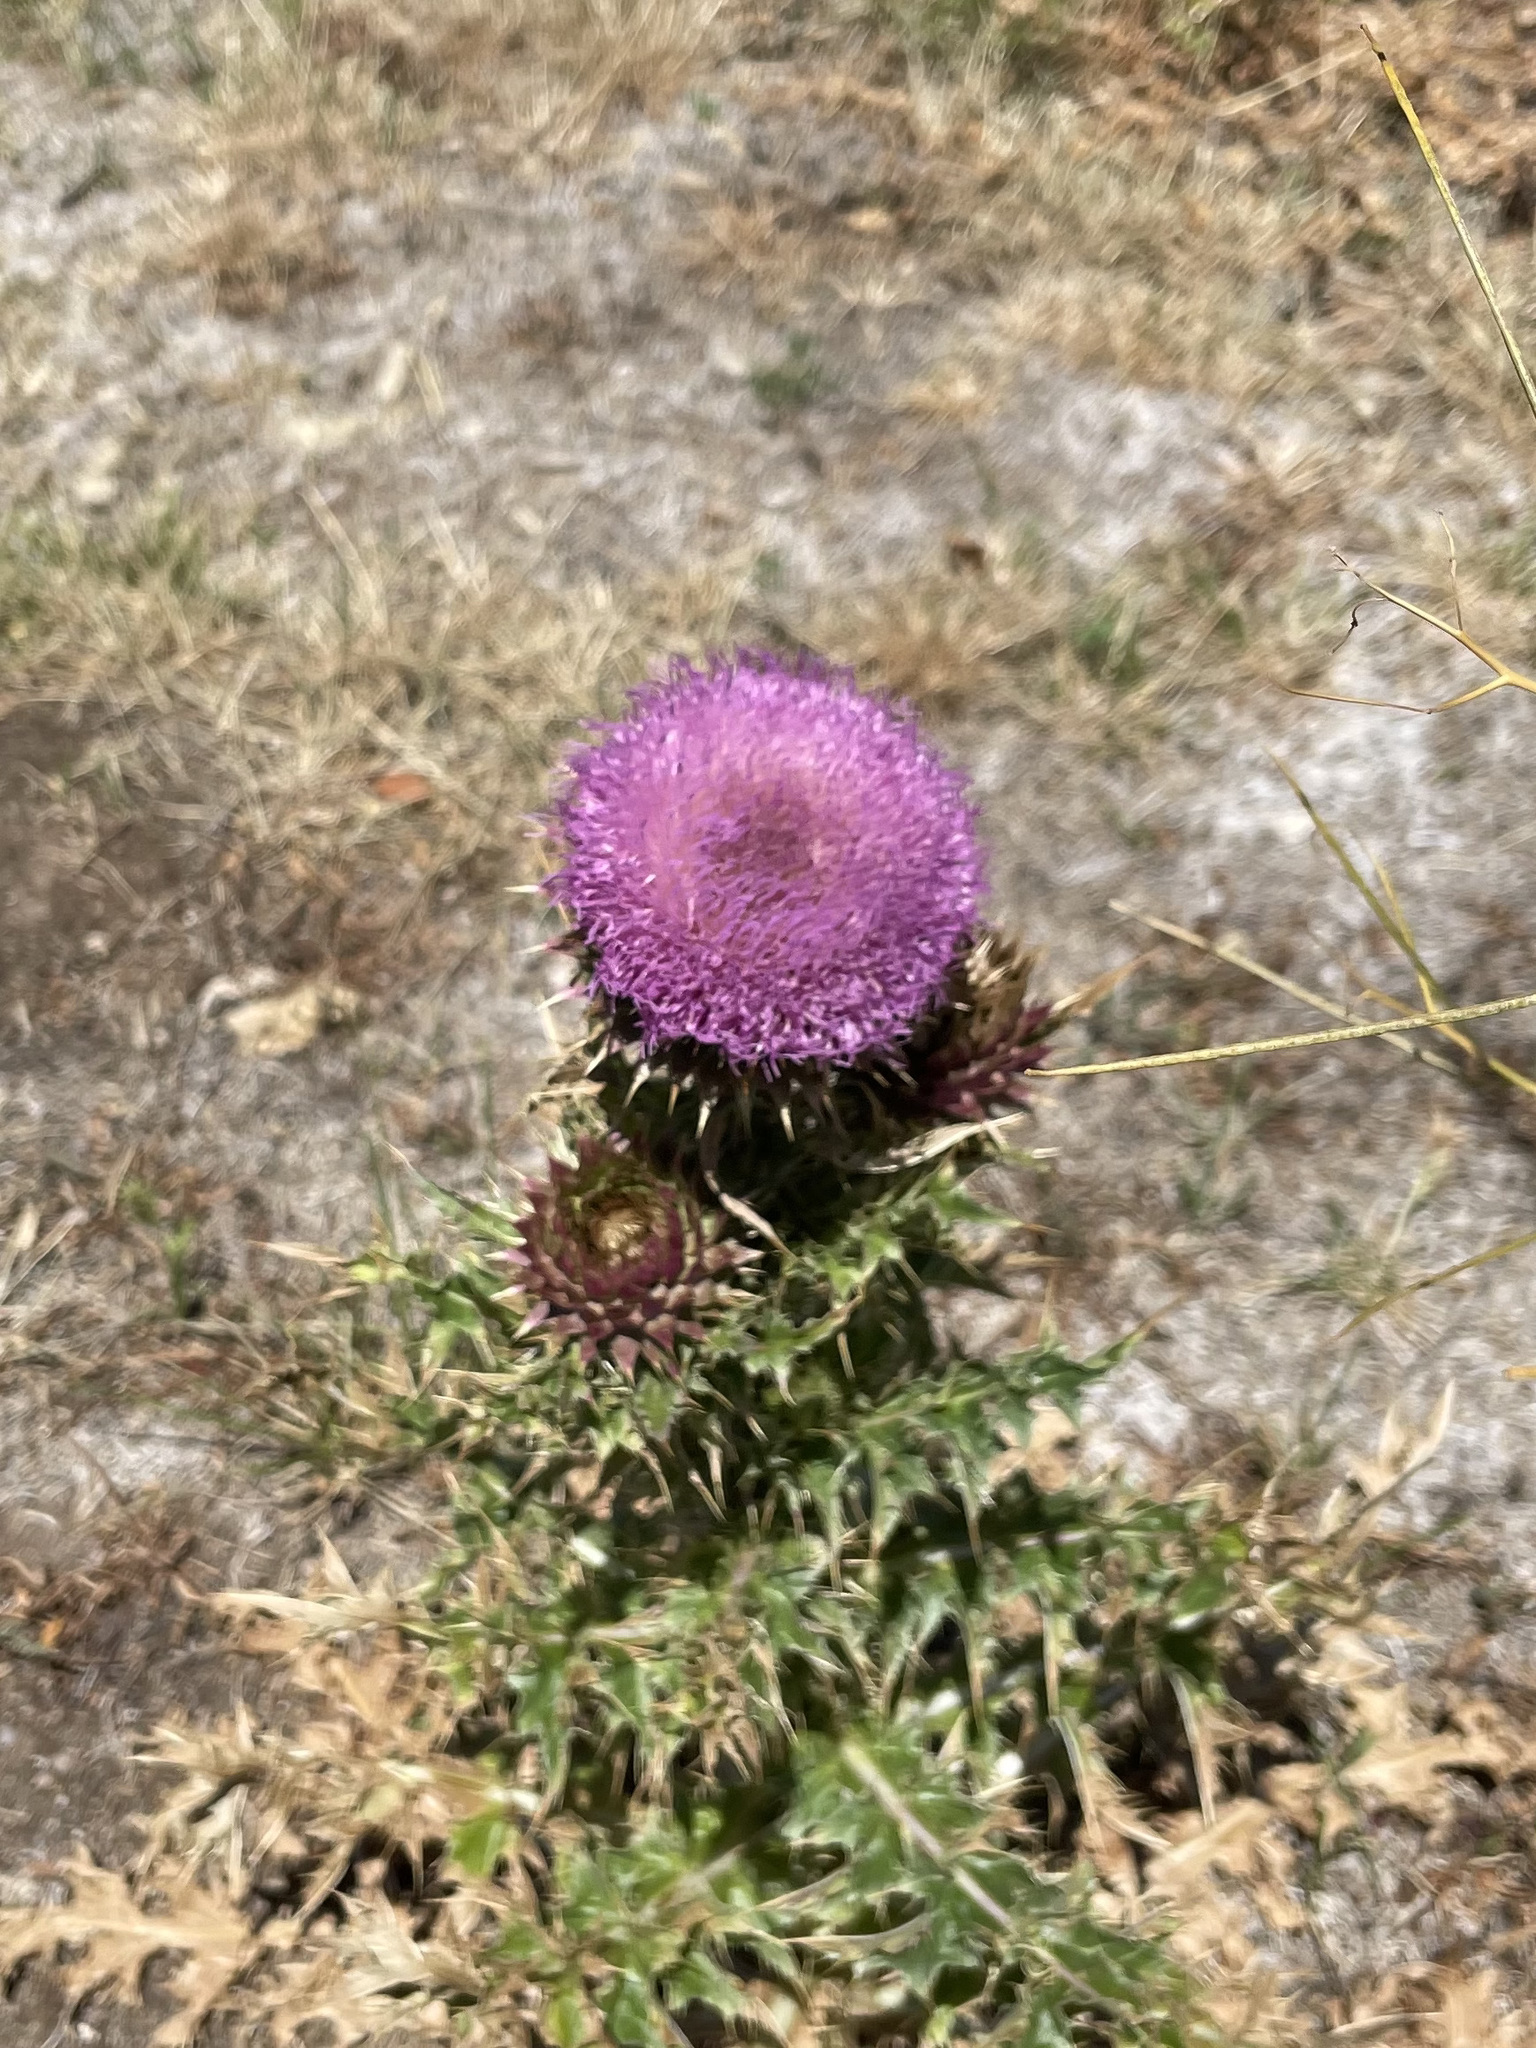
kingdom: Plantae
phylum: Tracheophyta
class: Magnoliopsida
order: Asterales
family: Asteraceae
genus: Carduus
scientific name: Carduus nutans
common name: Musk thistle
